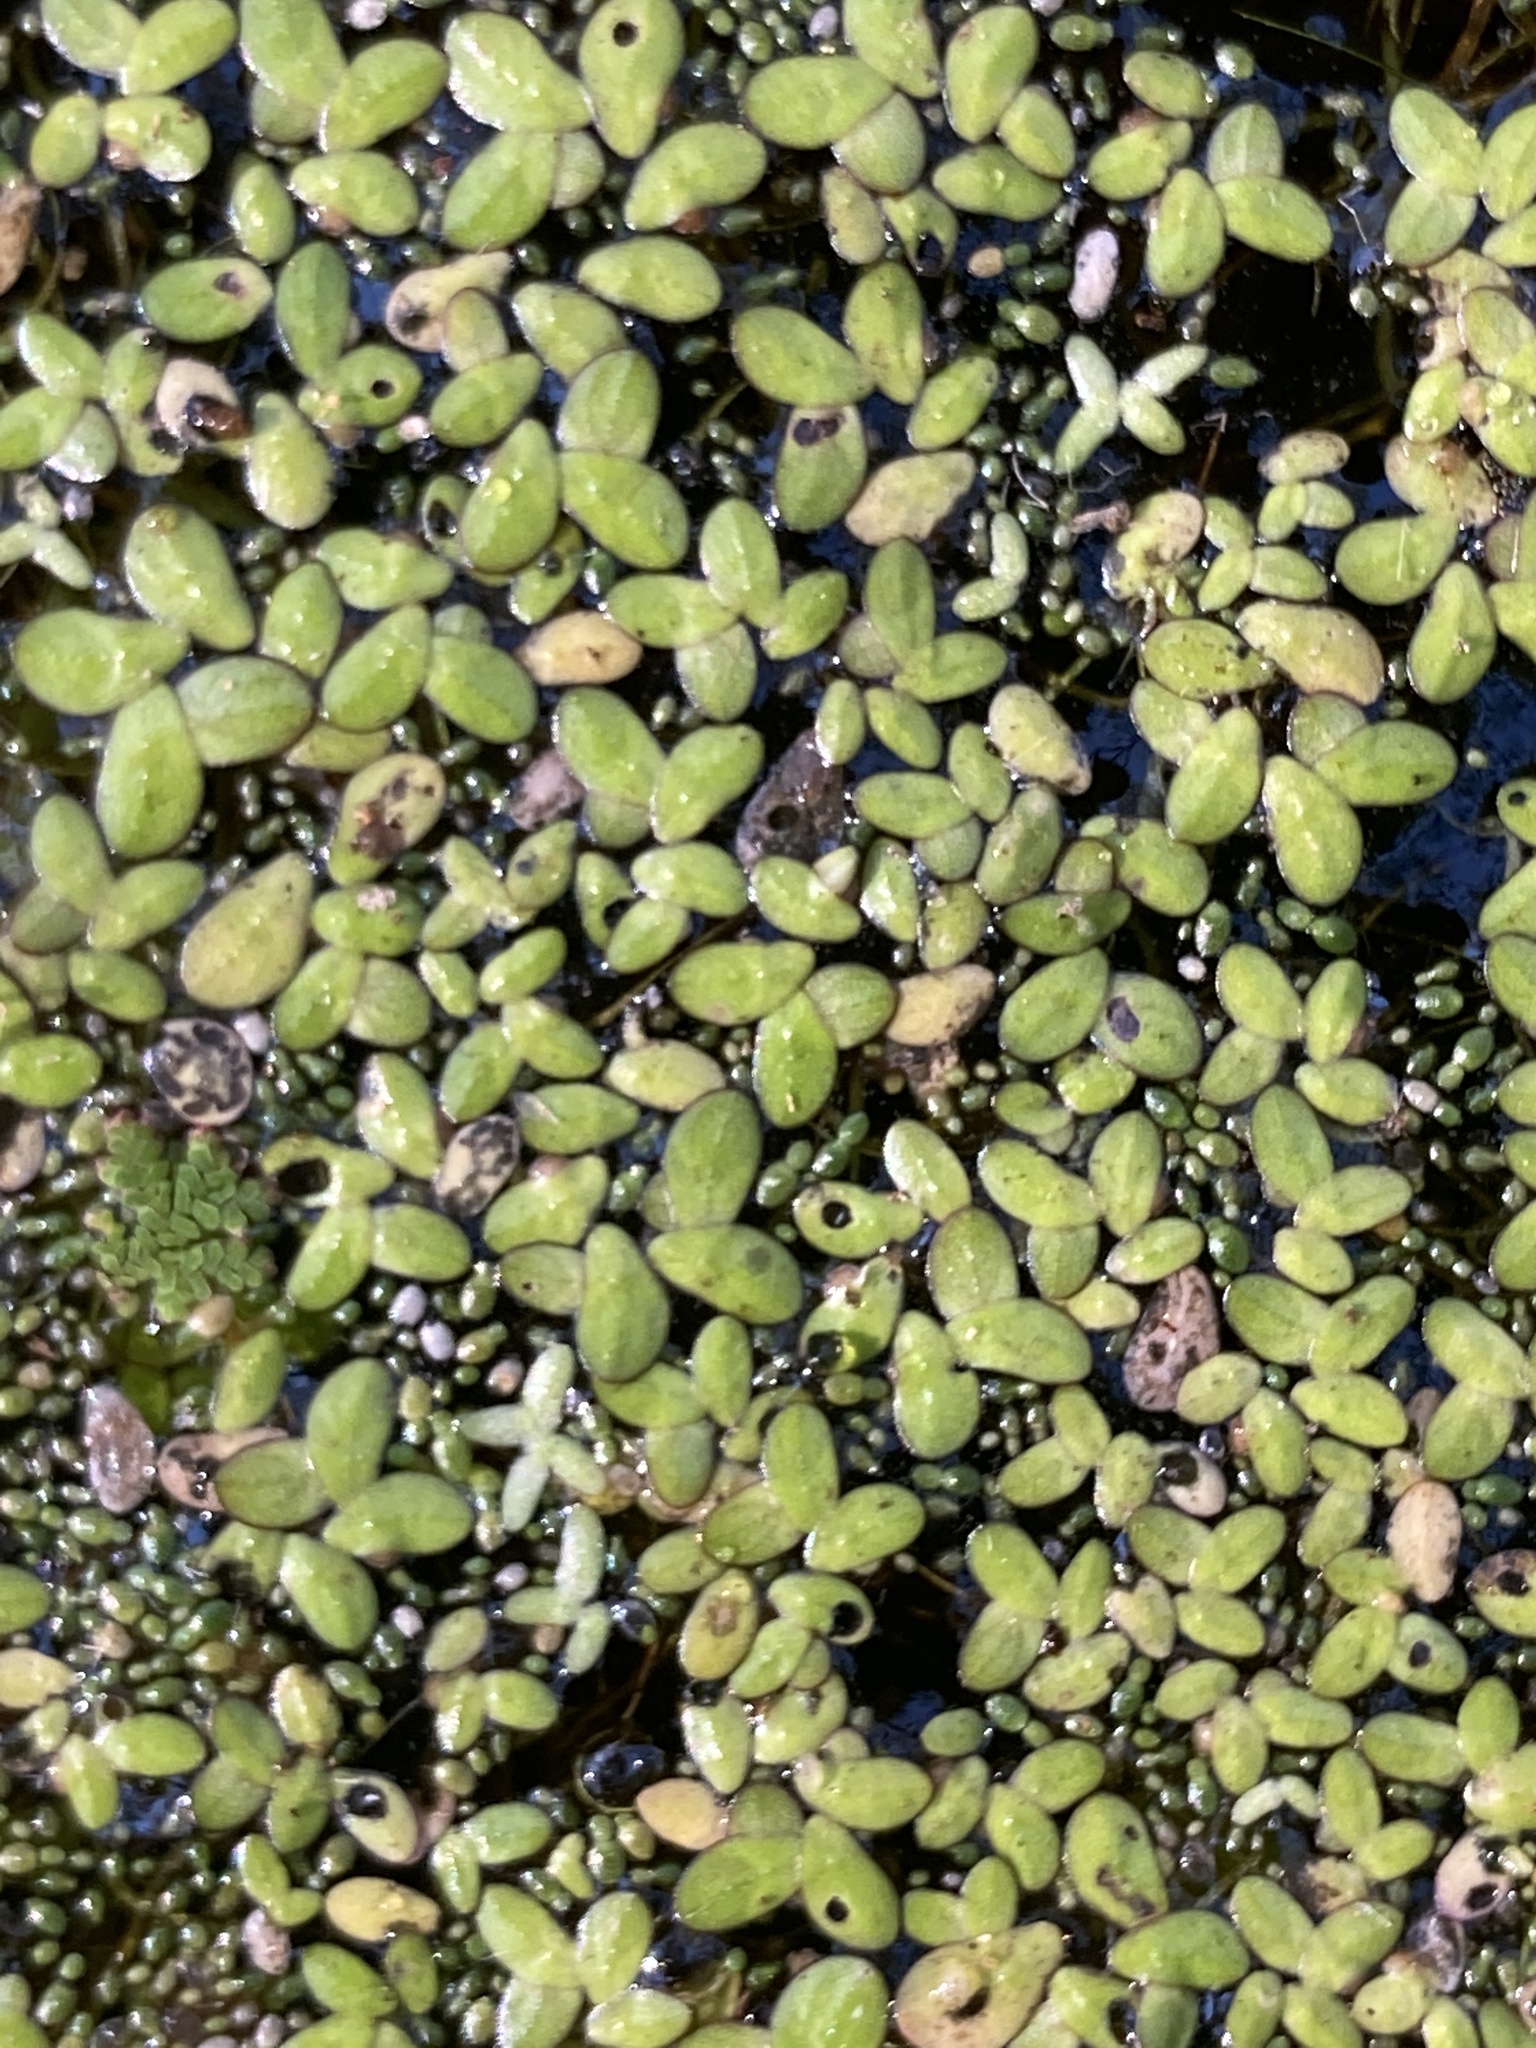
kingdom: Plantae
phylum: Tracheophyta
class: Liliopsida
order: Alismatales
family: Araceae
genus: Lemna
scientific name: Lemna minor
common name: Common duckweed
